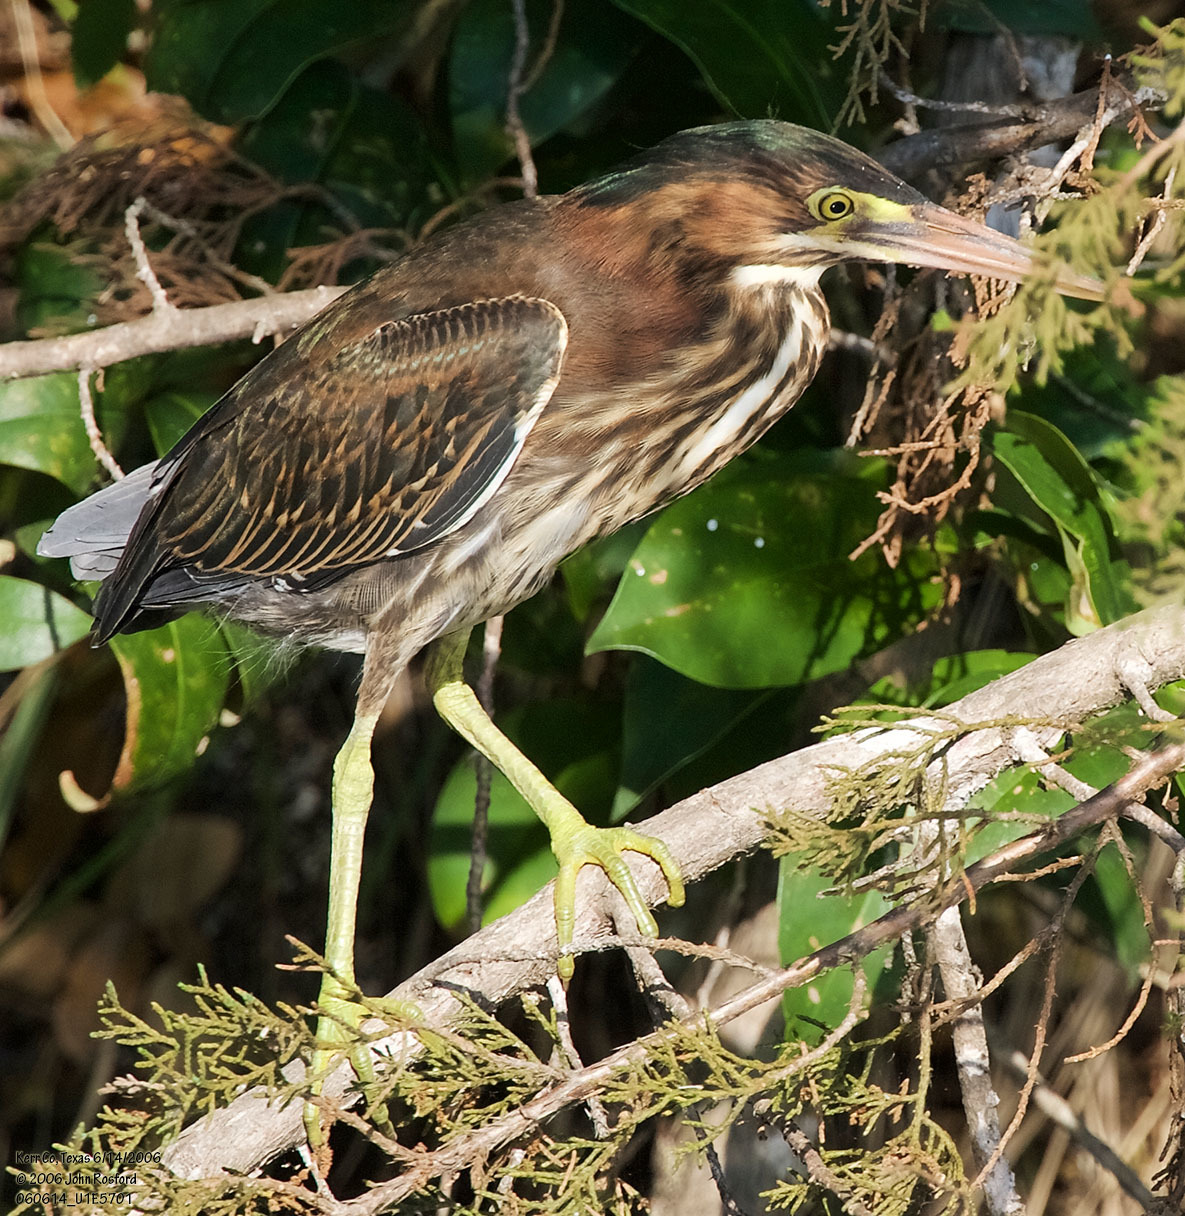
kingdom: Animalia
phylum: Chordata
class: Aves
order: Pelecaniformes
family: Ardeidae
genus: Butorides
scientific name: Butorides virescens
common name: Green heron
